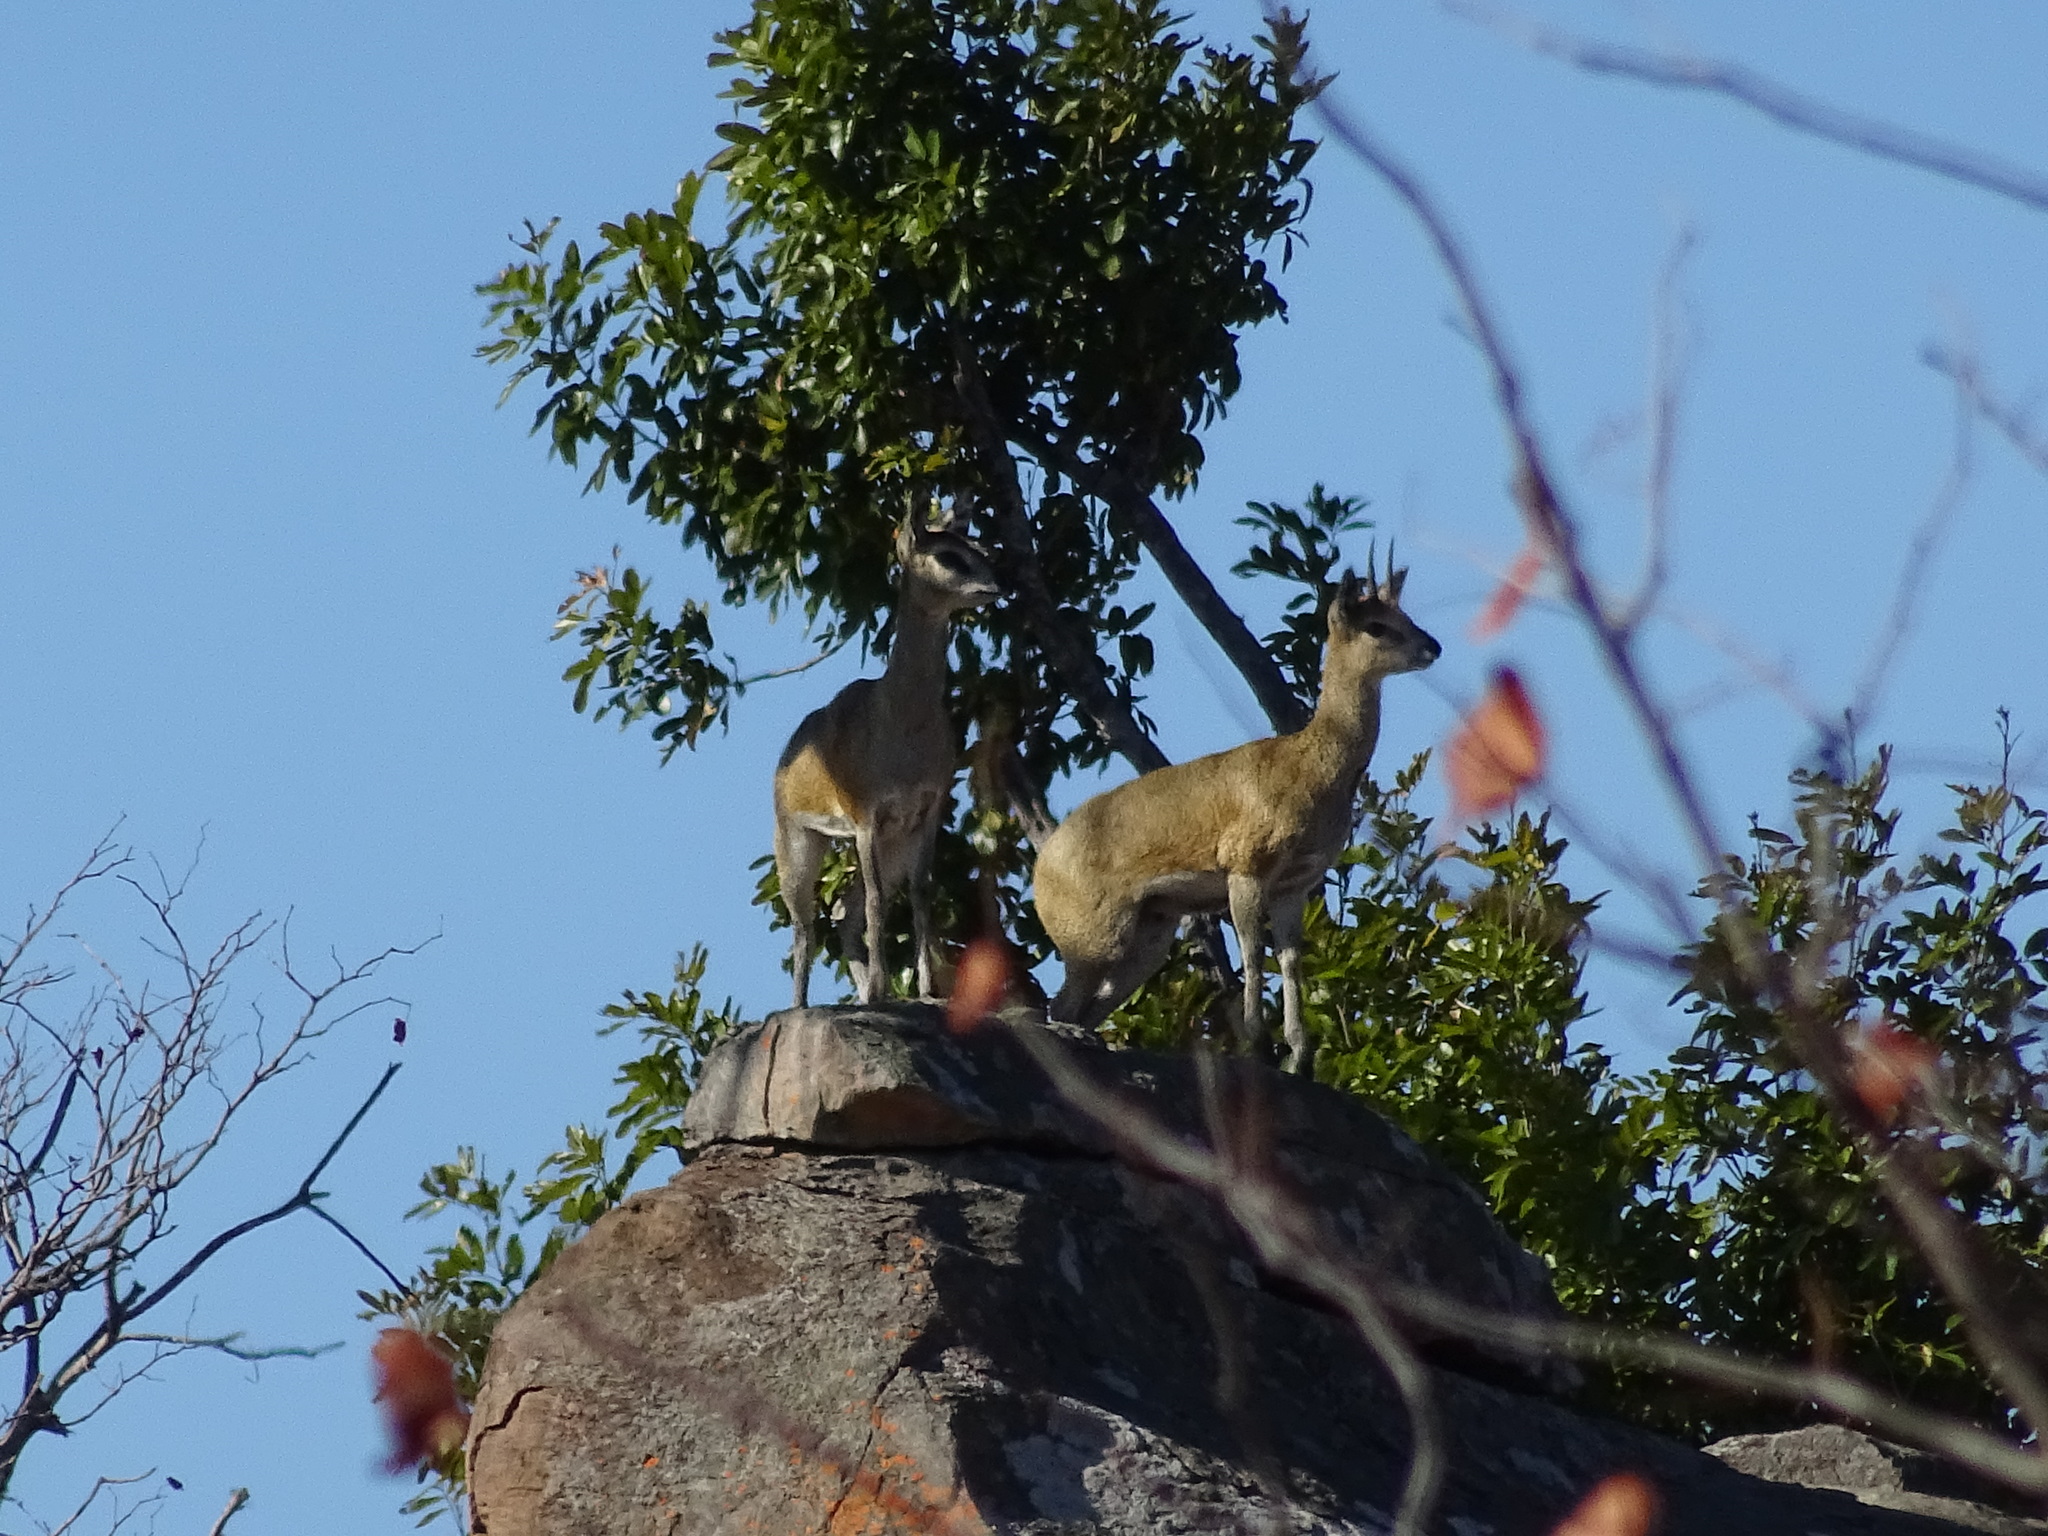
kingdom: Animalia
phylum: Chordata
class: Mammalia
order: Artiodactyla
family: Bovidae
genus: Oreotragus
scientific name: Oreotragus oreotragus
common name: Klipspringer
